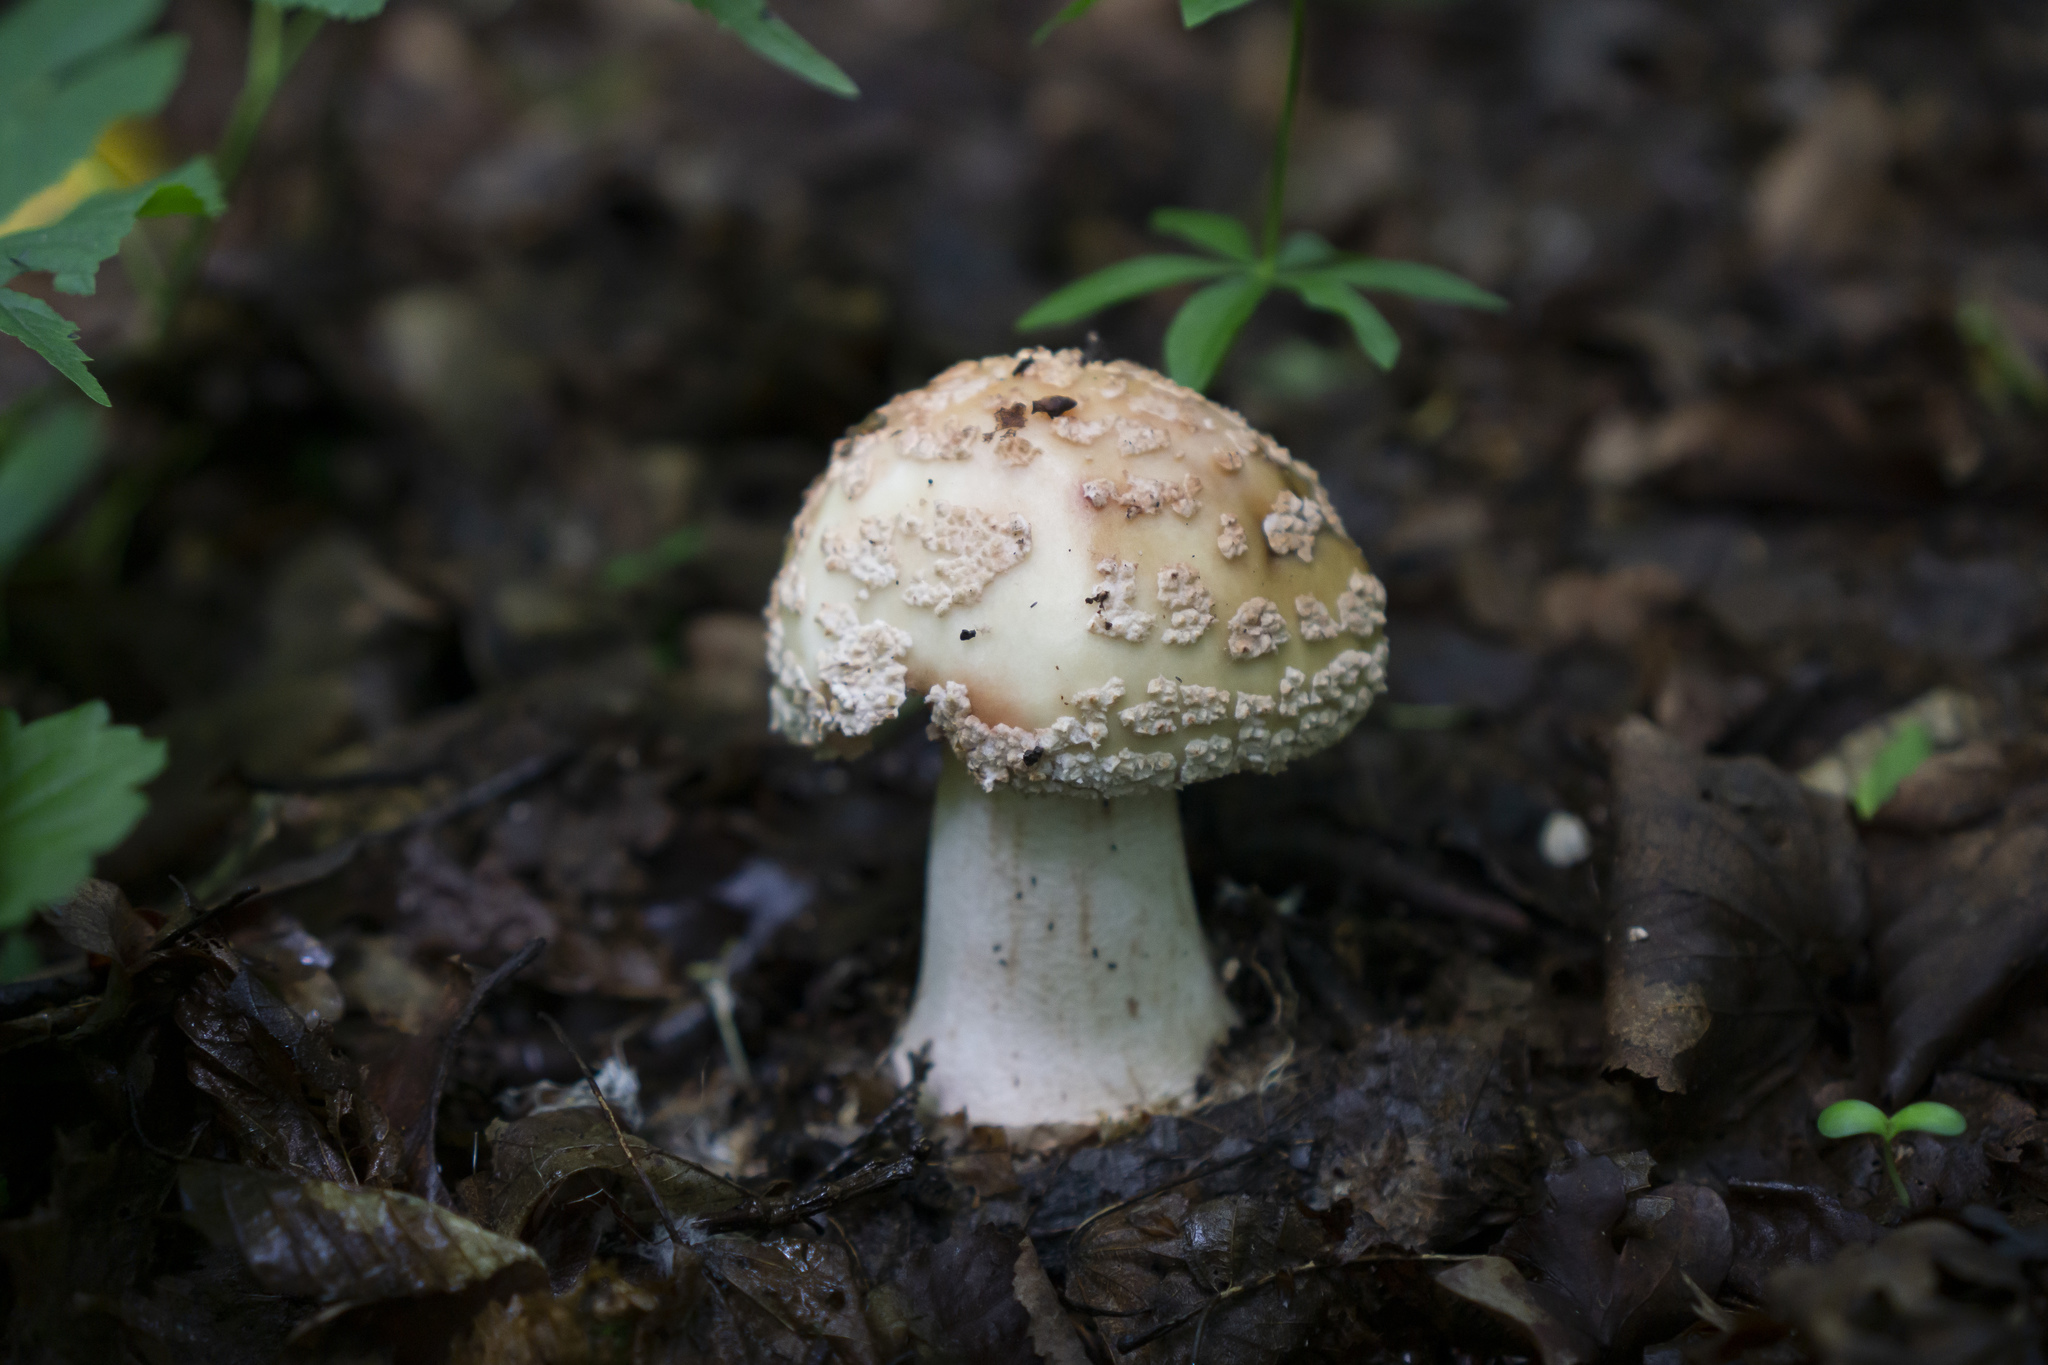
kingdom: Fungi
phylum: Basidiomycota
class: Agaricomycetes
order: Agaricales
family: Amanitaceae
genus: Amanita
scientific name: Amanita rubescens
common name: Blusher
